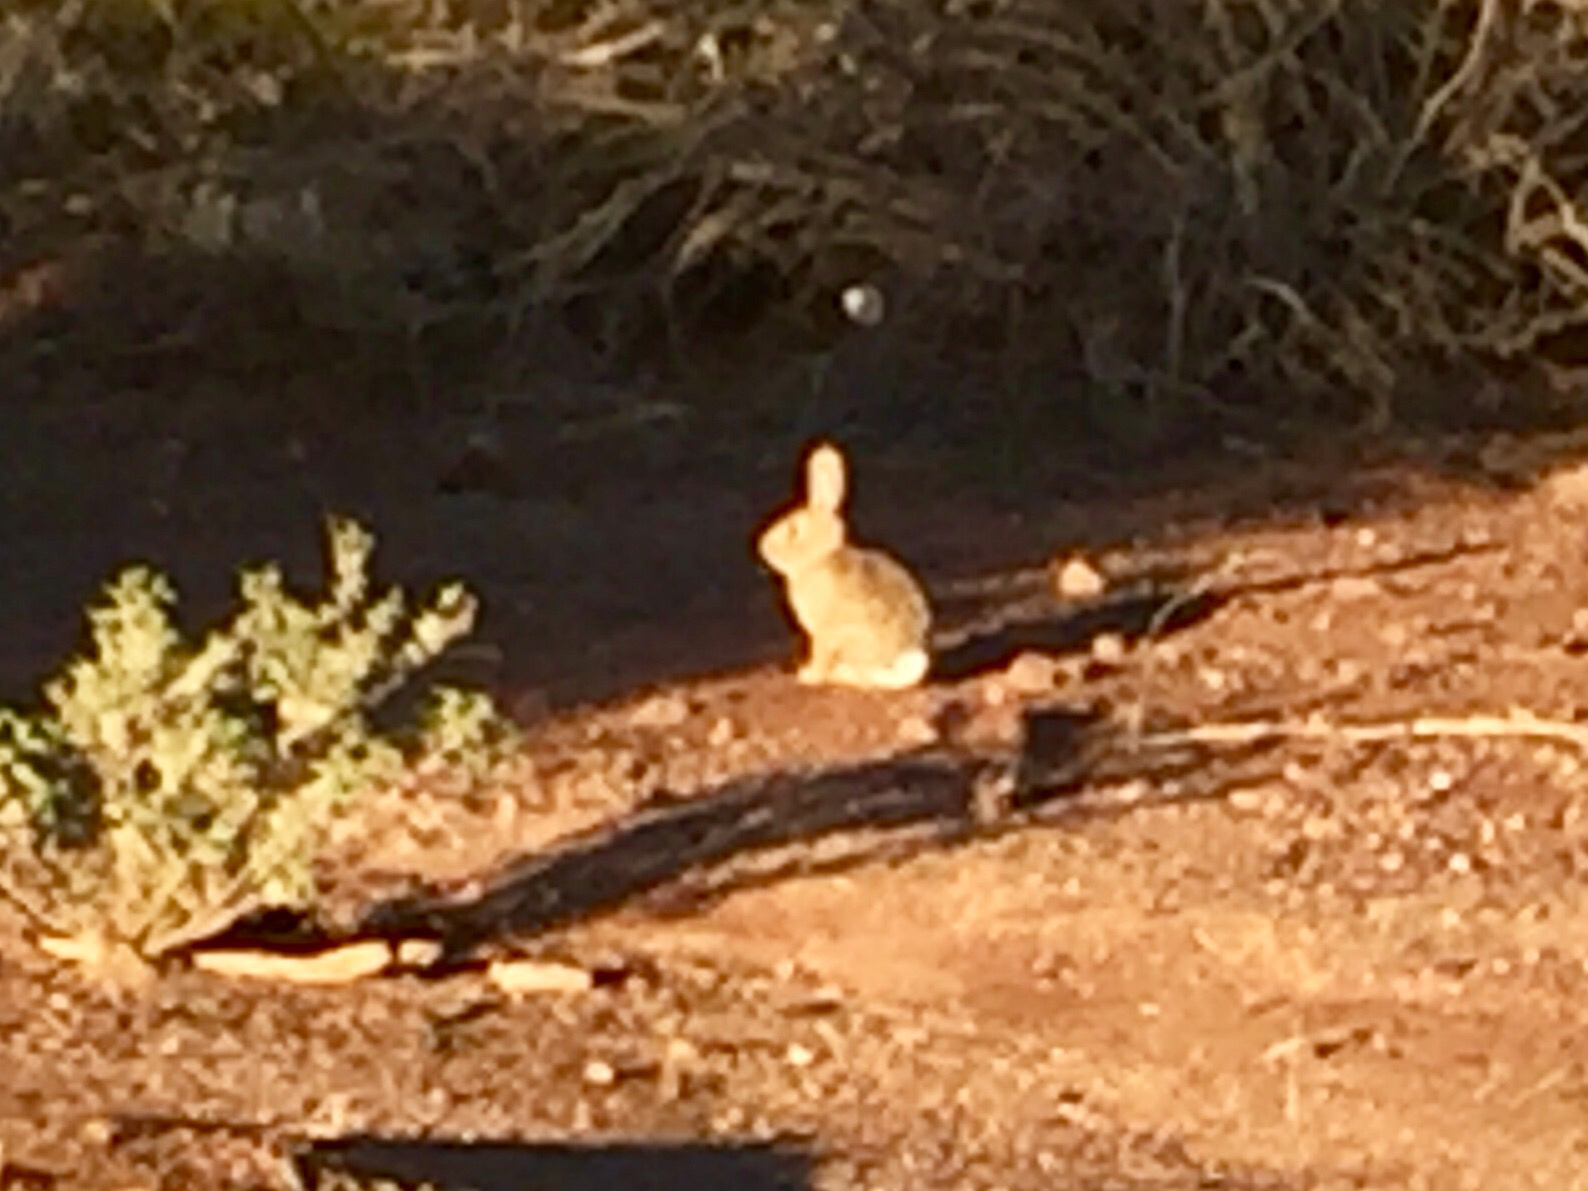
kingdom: Animalia
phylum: Chordata
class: Mammalia
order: Lagomorpha
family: Leporidae
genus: Sylvilagus
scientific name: Sylvilagus audubonii
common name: Desert cottontail
